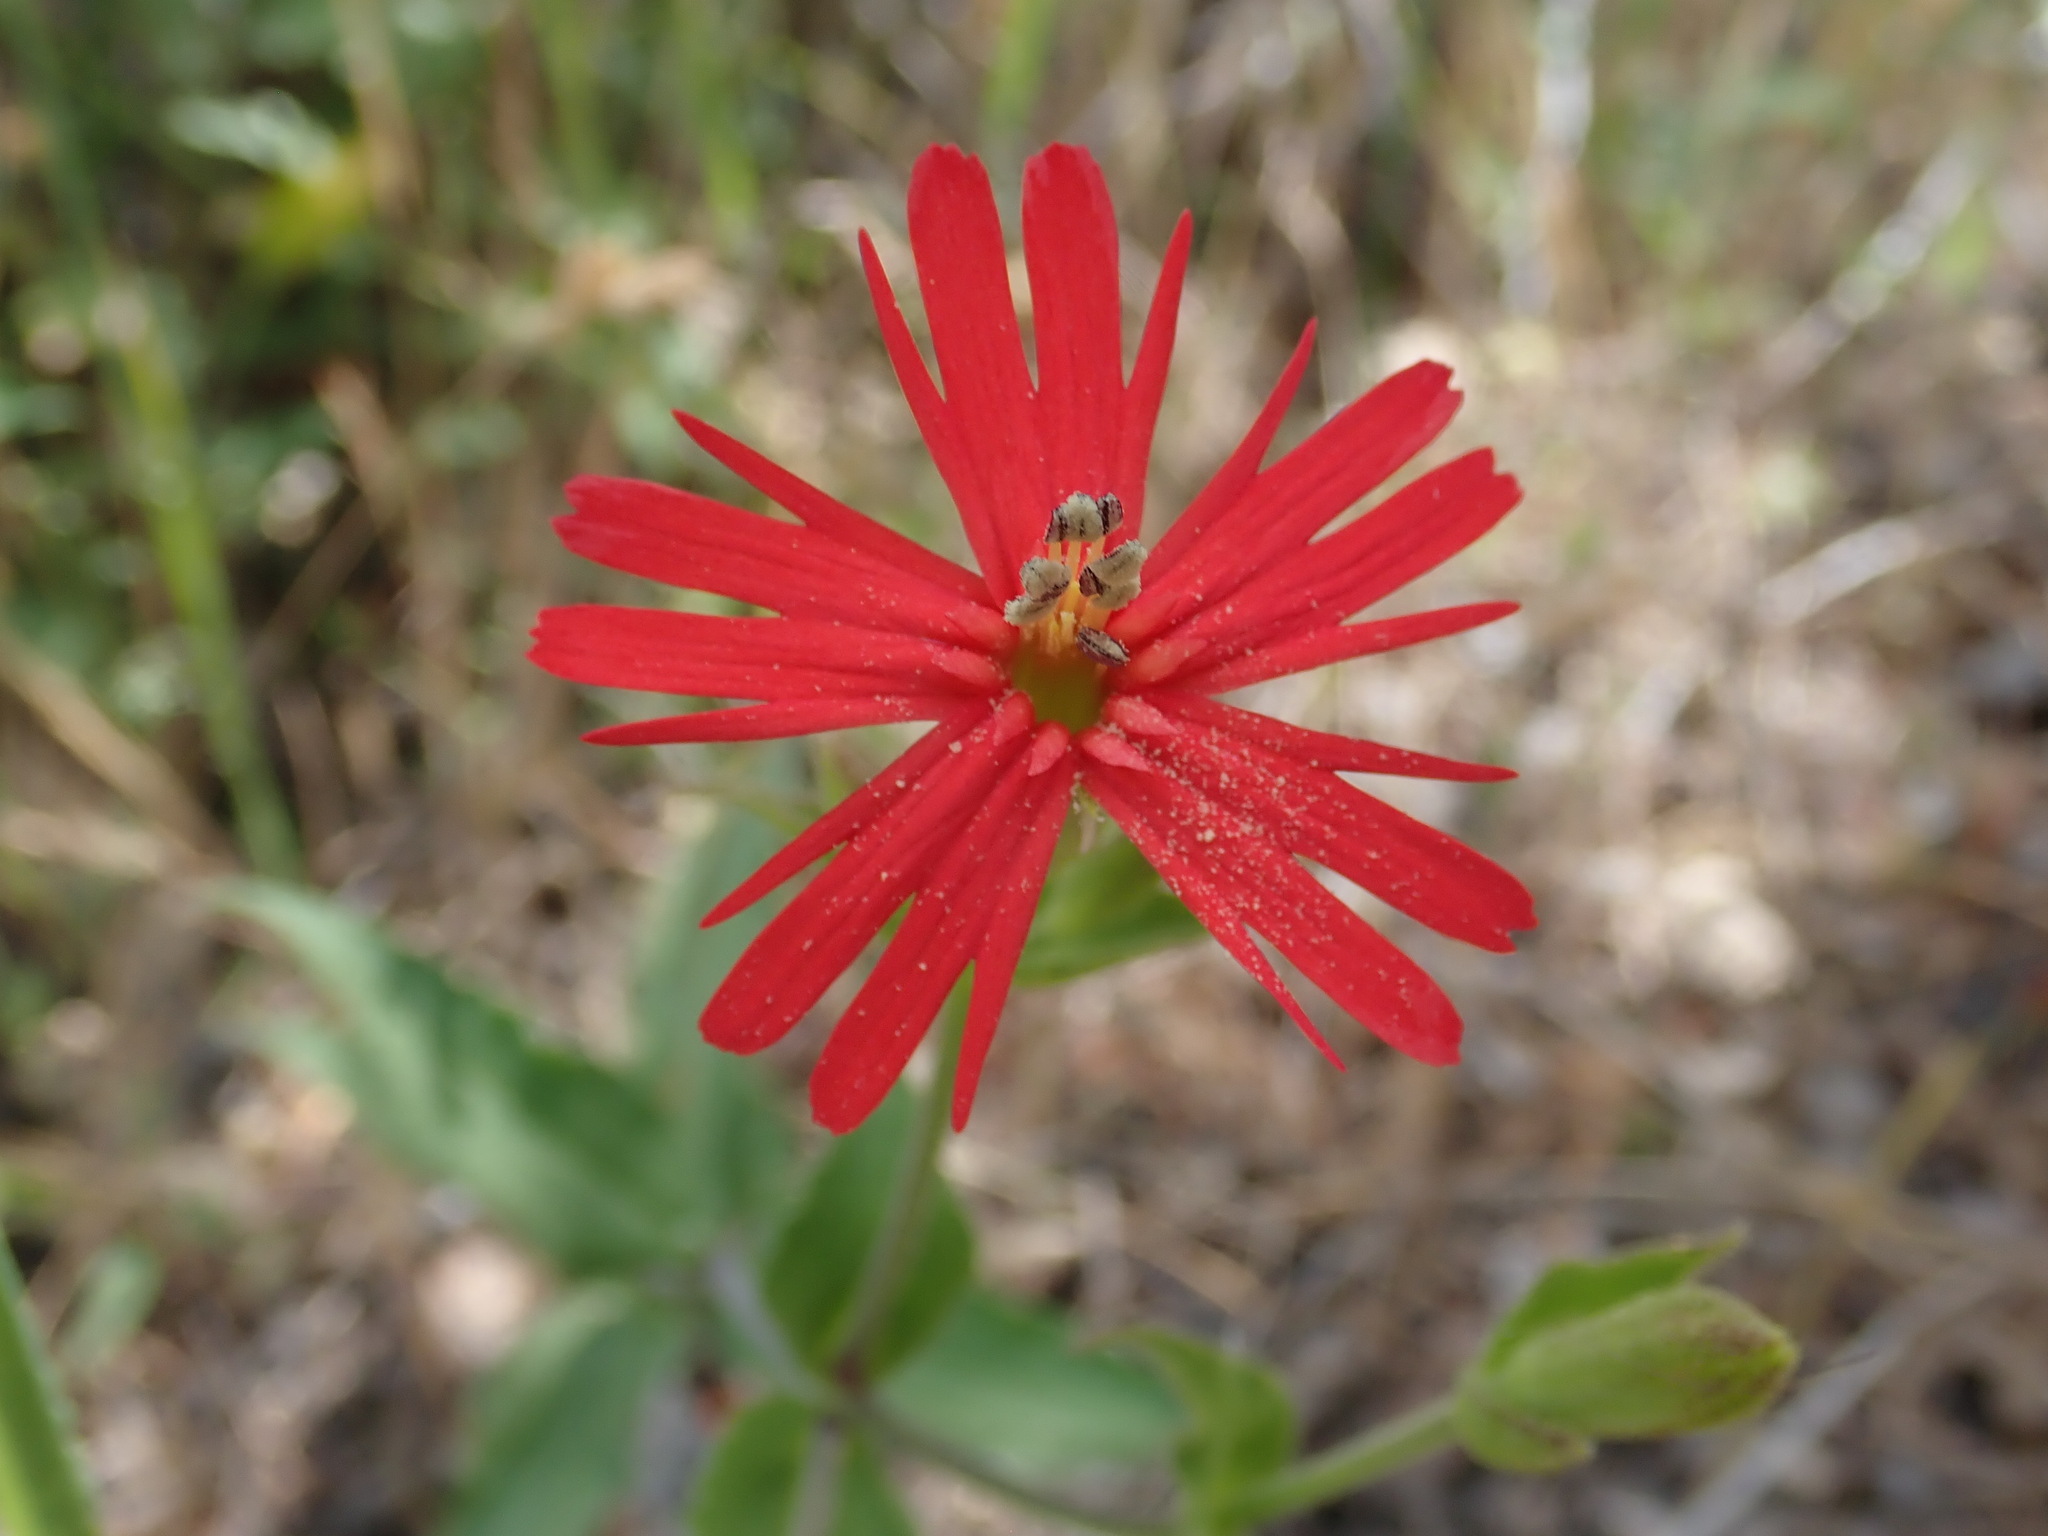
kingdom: Plantae
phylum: Tracheophyta
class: Magnoliopsida
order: Caryophyllales
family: Caryophyllaceae
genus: Silene
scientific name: Silene laciniata
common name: Indian-pink
